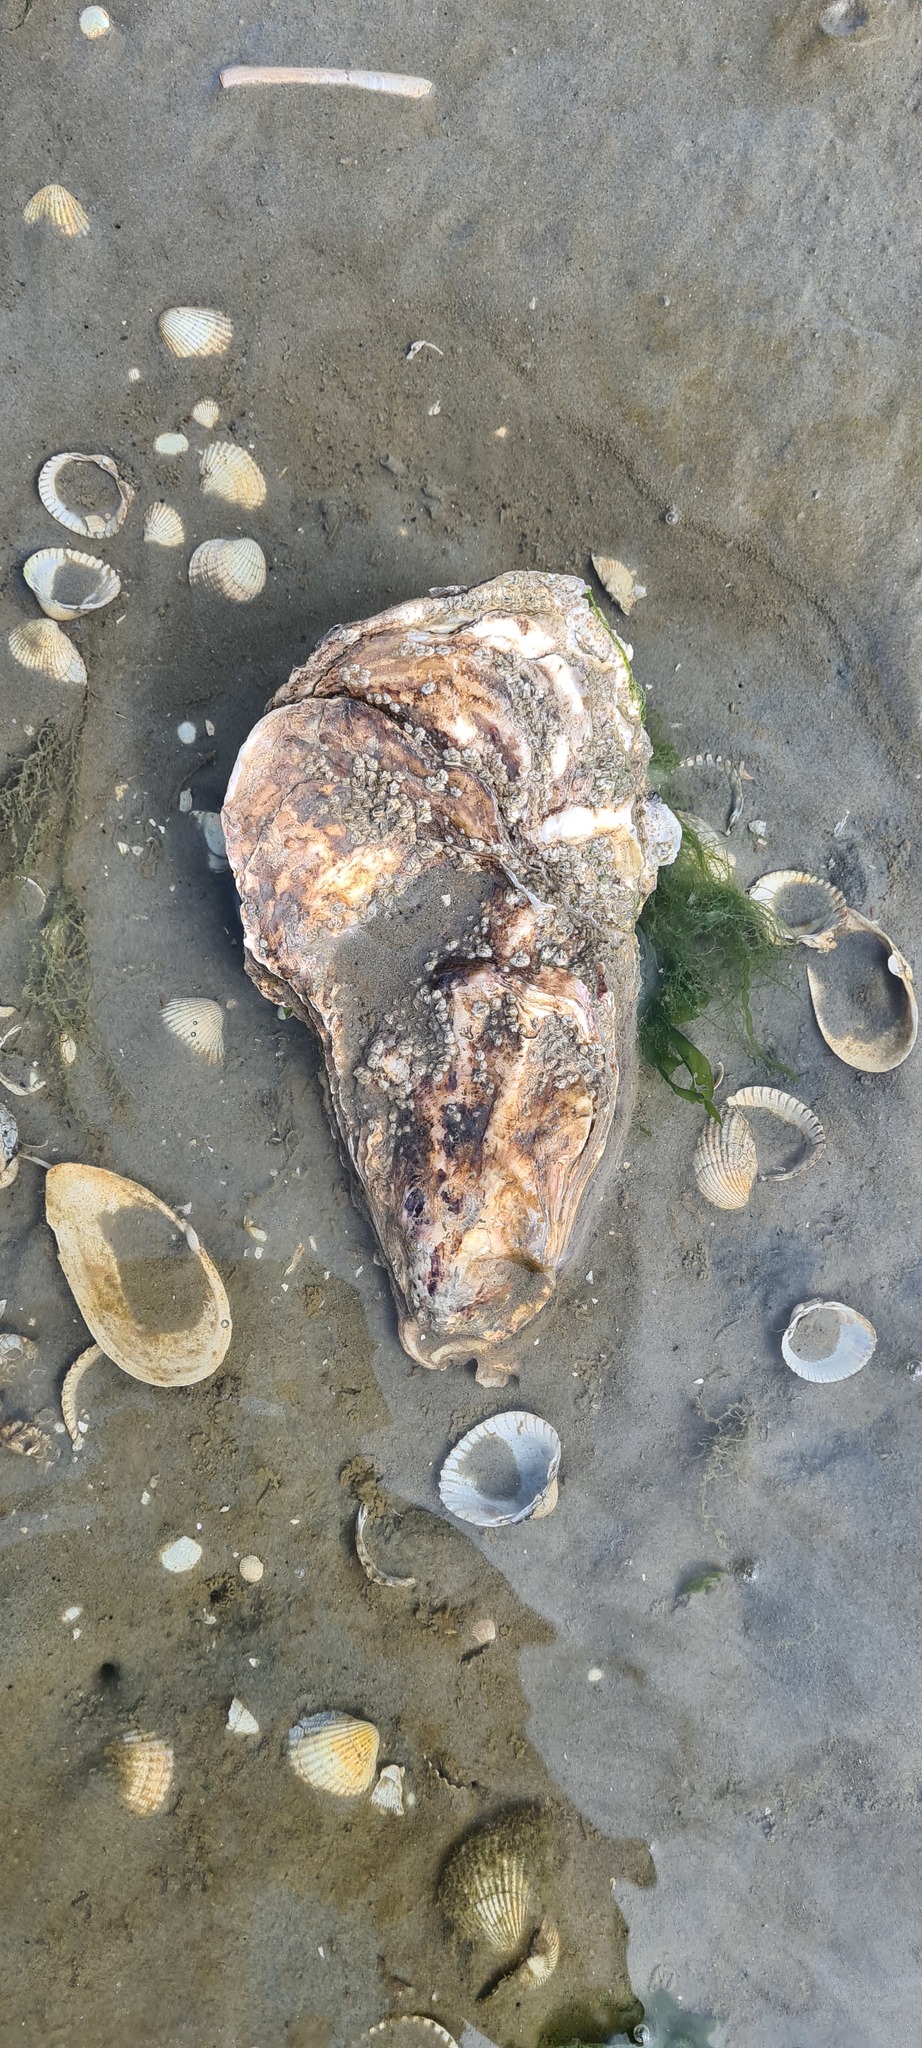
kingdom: Animalia
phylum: Mollusca
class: Bivalvia
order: Ostreida
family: Ostreidae
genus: Magallana
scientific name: Magallana gigas
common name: Pacific oyster
